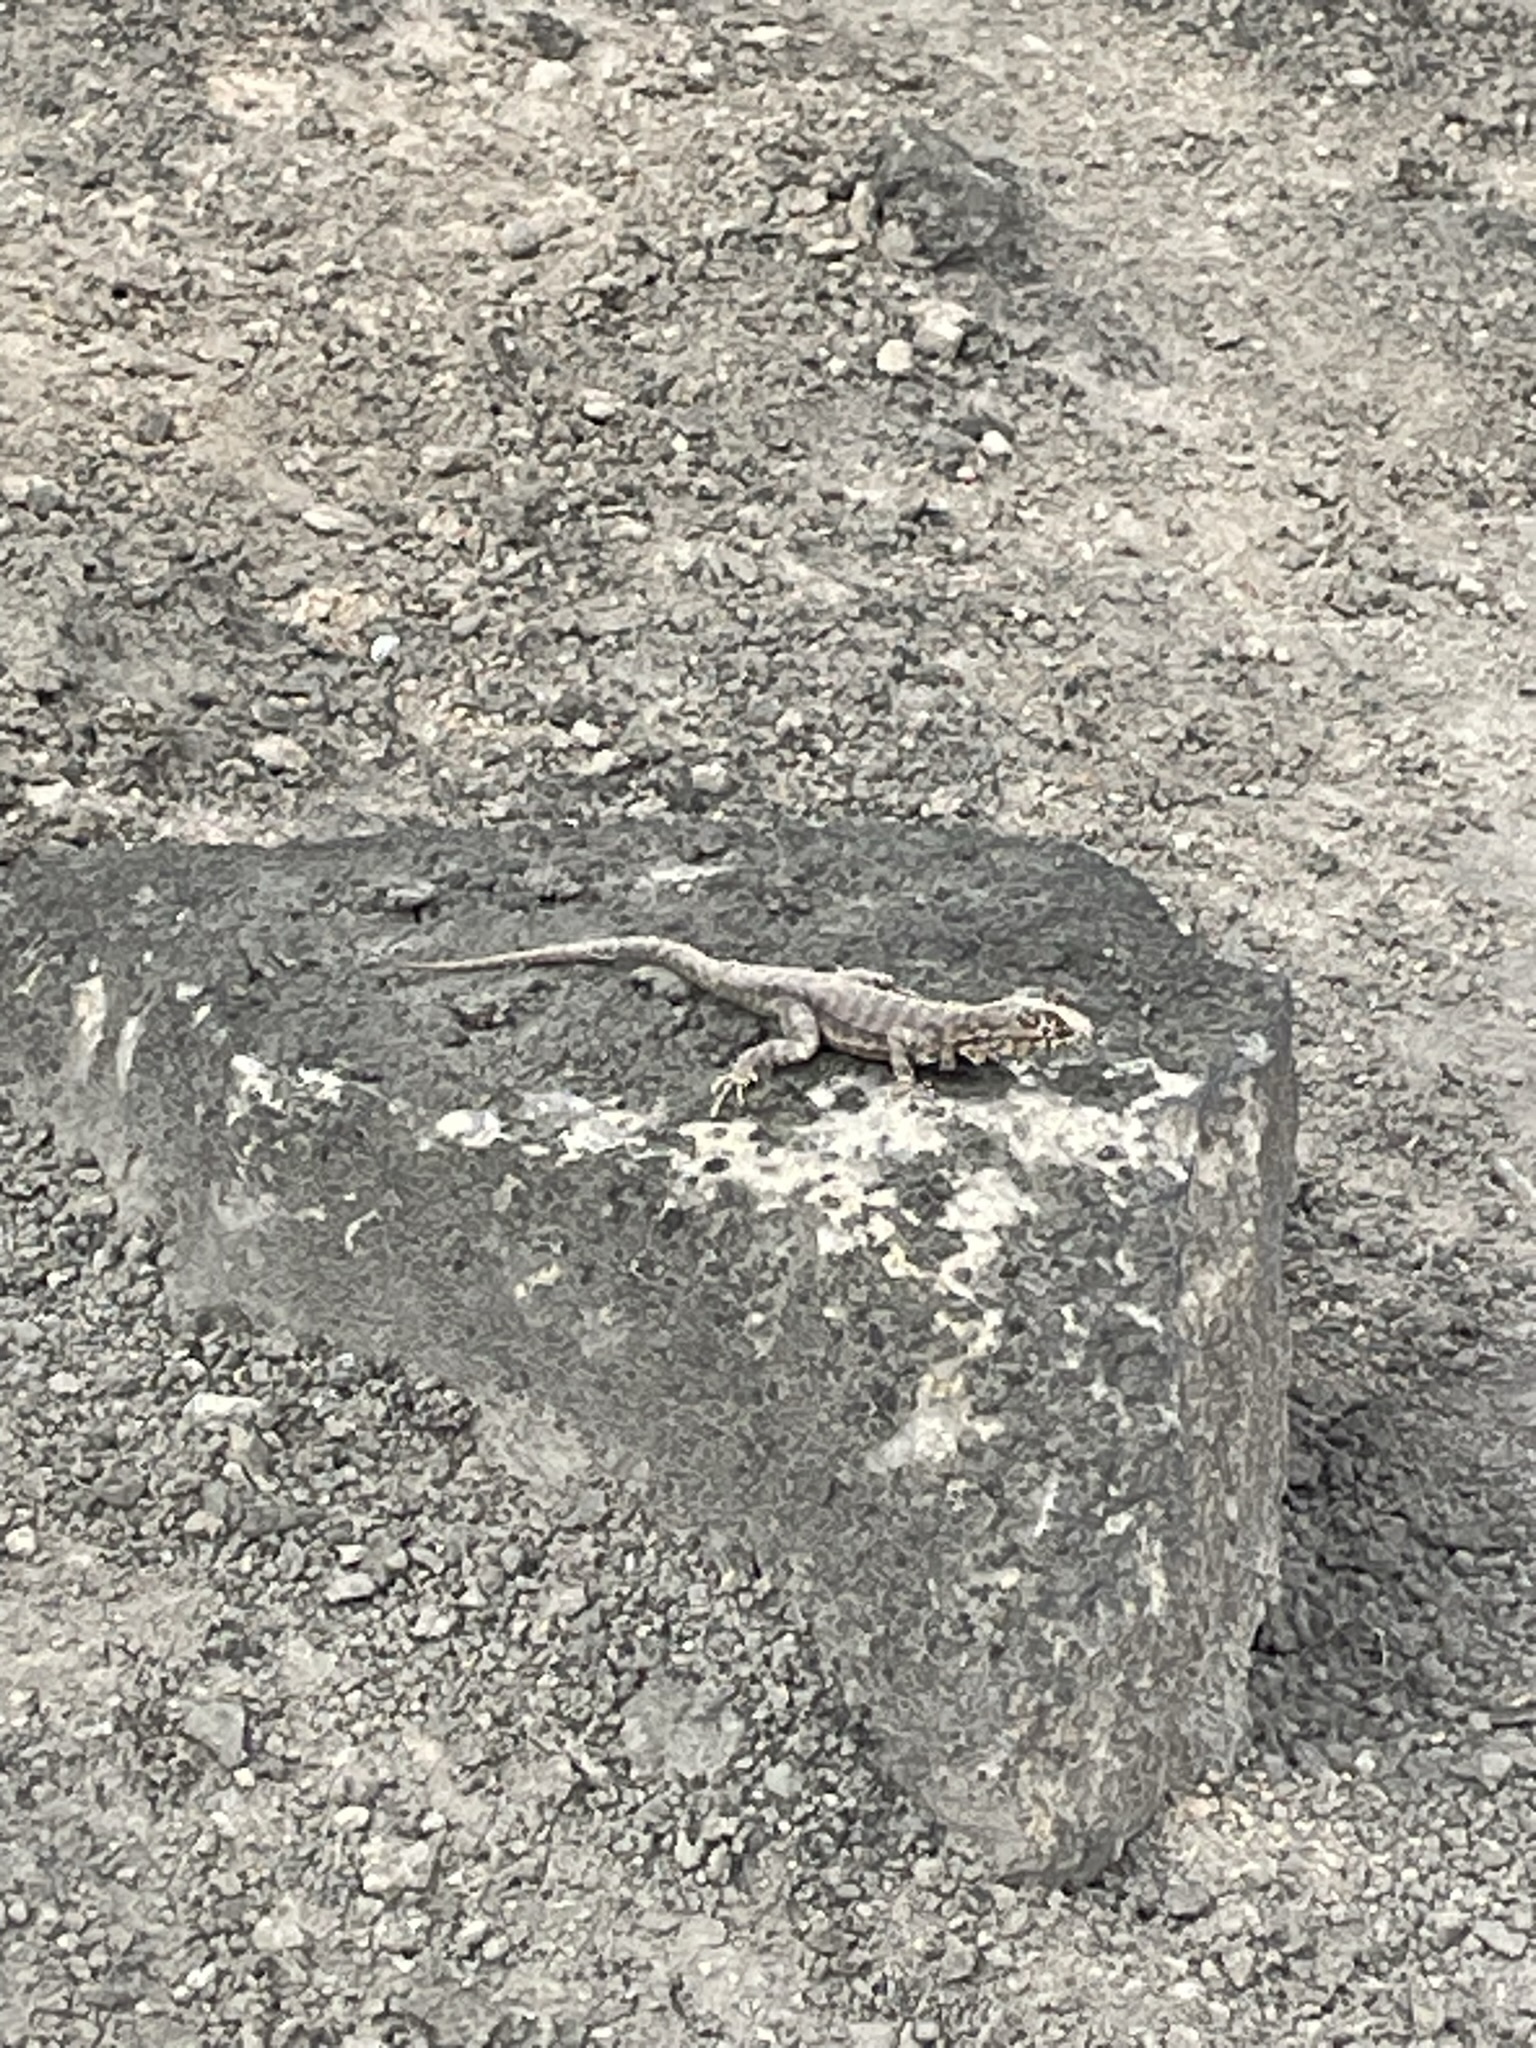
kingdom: Animalia
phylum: Chordata
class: Squamata
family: Tropiduridae
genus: Microlophus
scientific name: Microlophus tigris
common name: Tiger pacific iguana
